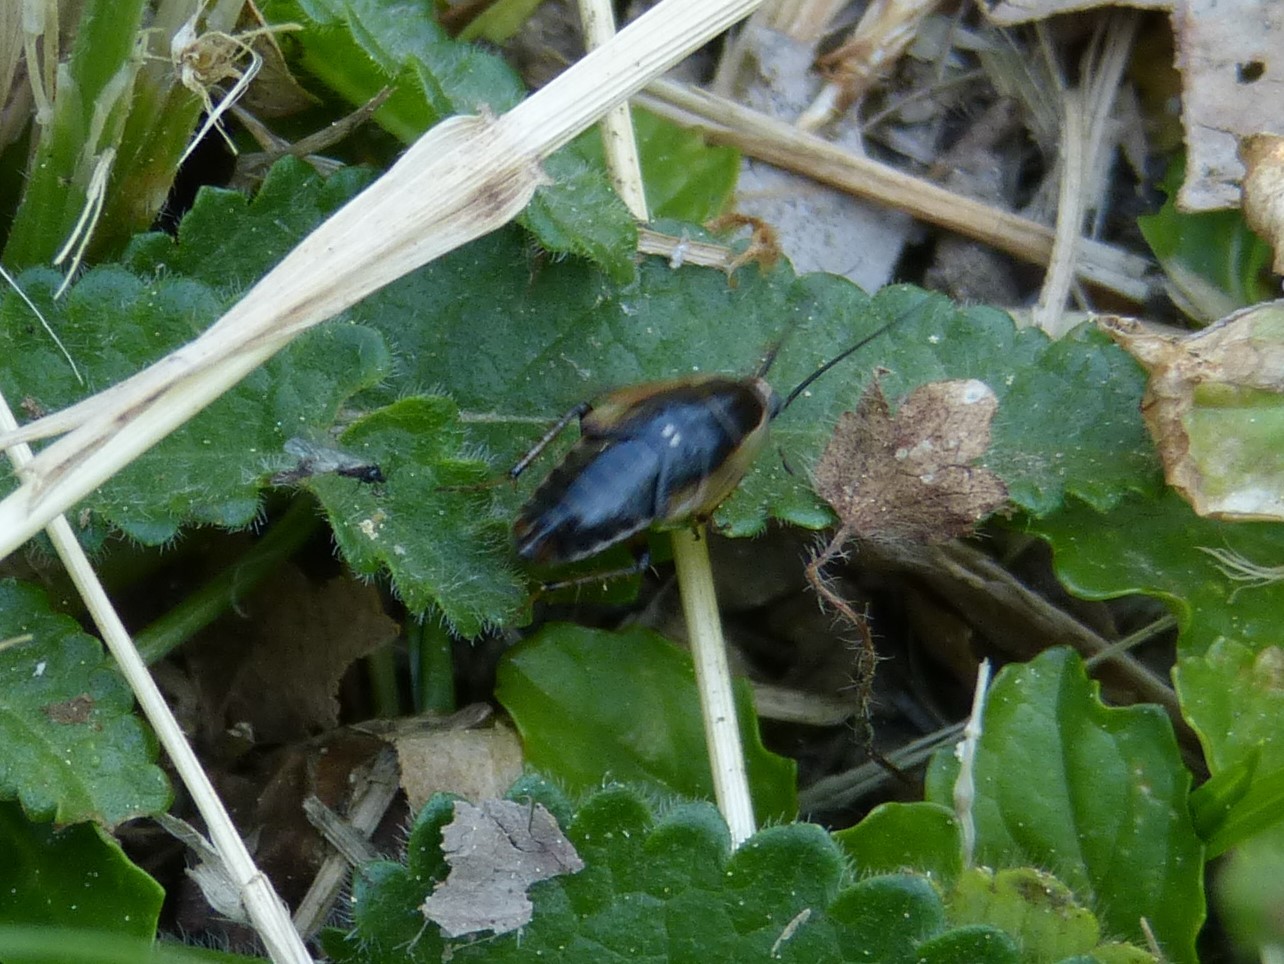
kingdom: Animalia
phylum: Arthropoda
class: Insecta
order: Blattodea
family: Ectobiidae
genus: Ectobius
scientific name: Ectobius sylvestris
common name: Forest cockroach
